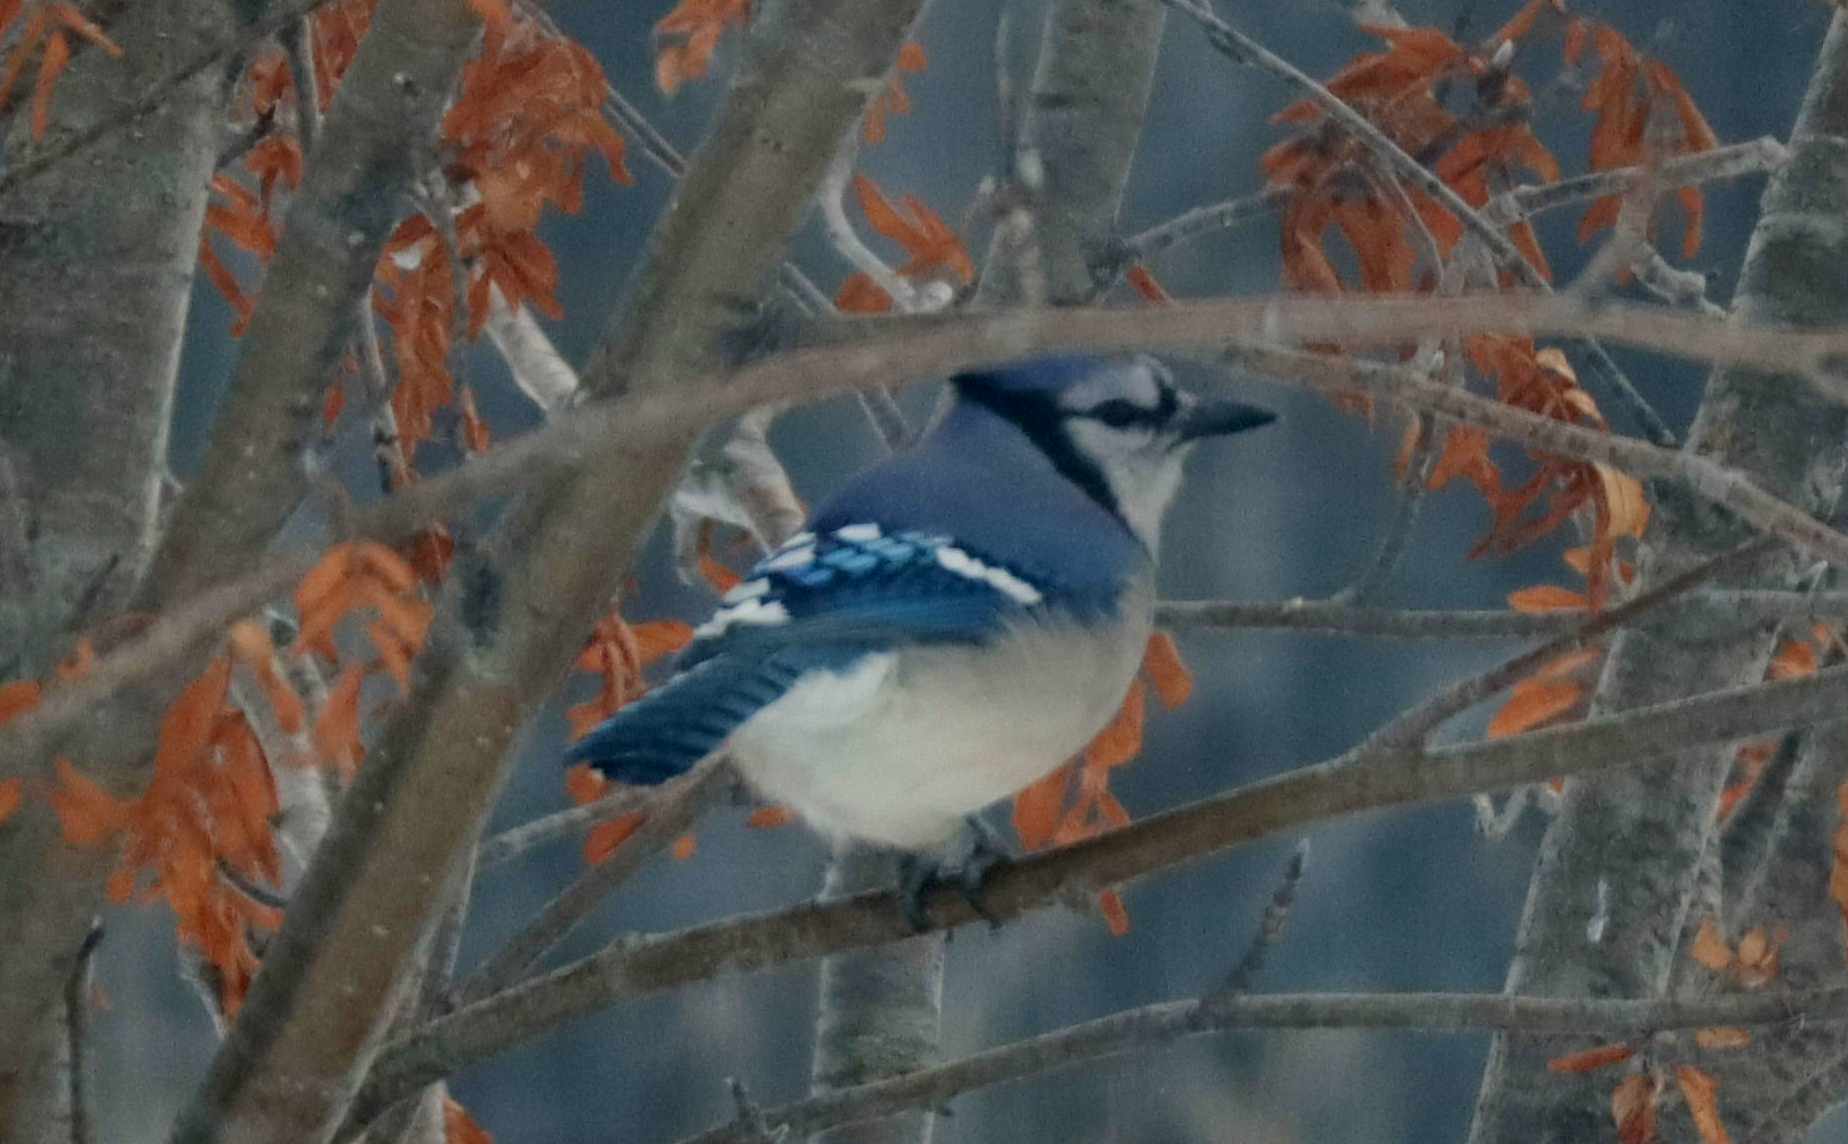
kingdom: Animalia
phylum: Chordata
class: Aves
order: Passeriformes
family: Corvidae
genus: Cyanocitta
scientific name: Cyanocitta cristata
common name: Blue jay
